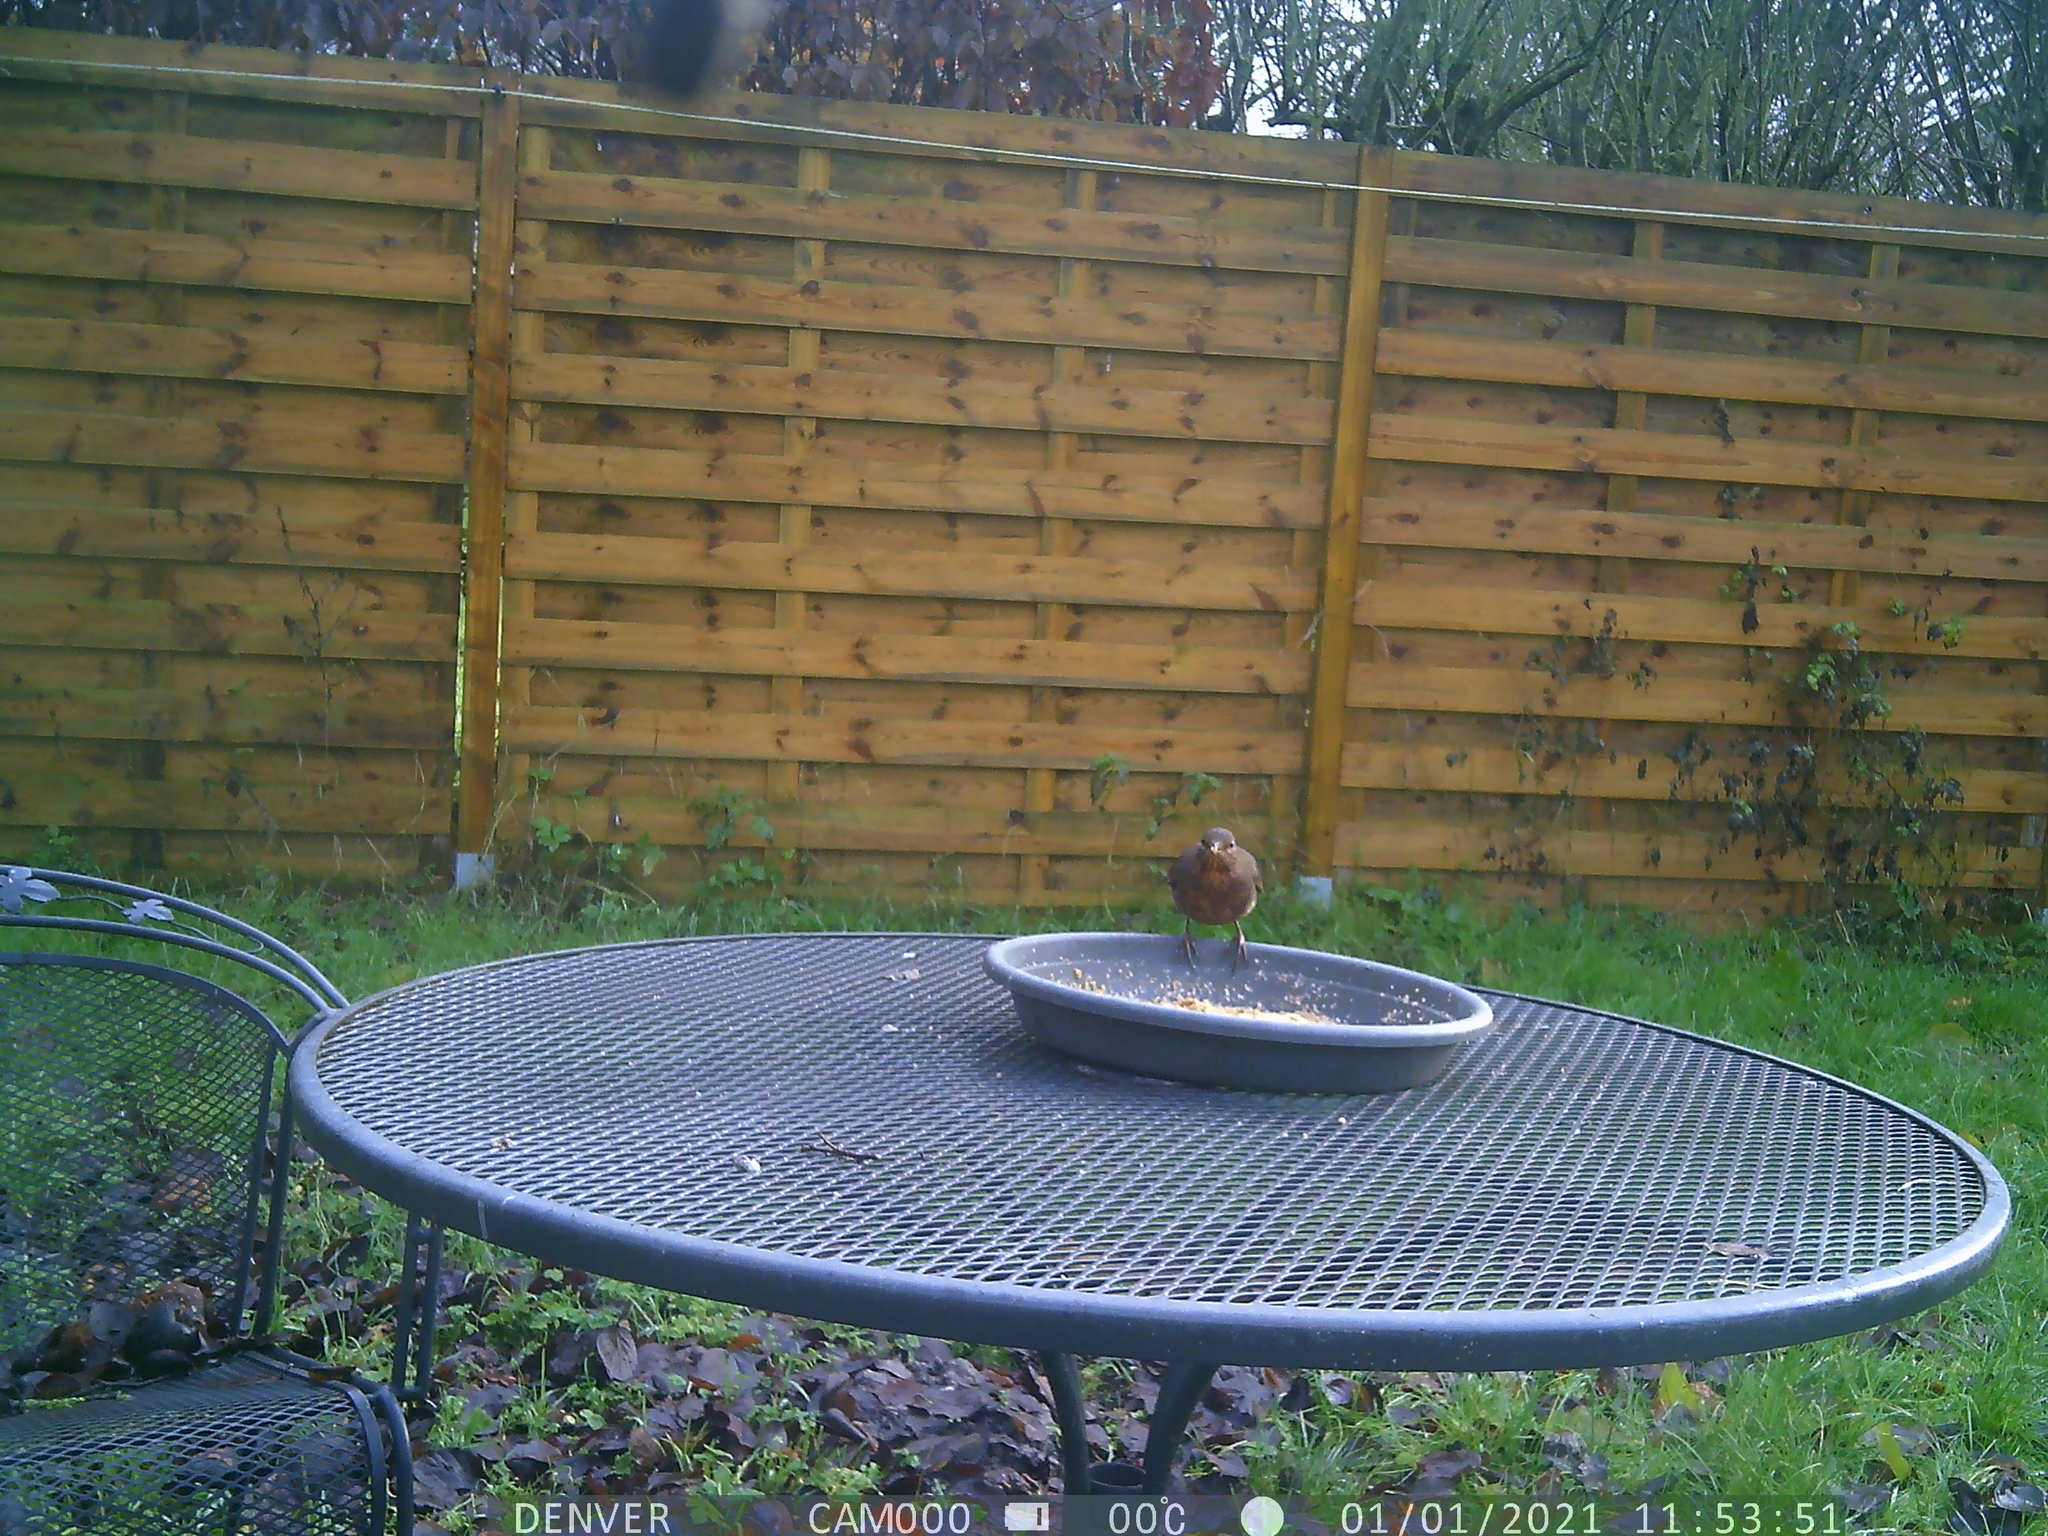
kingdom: Animalia
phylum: Chordata
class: Aves
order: Passeriformes
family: Turdidae
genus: Turdus
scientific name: Turdus merula
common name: Common blackbird
